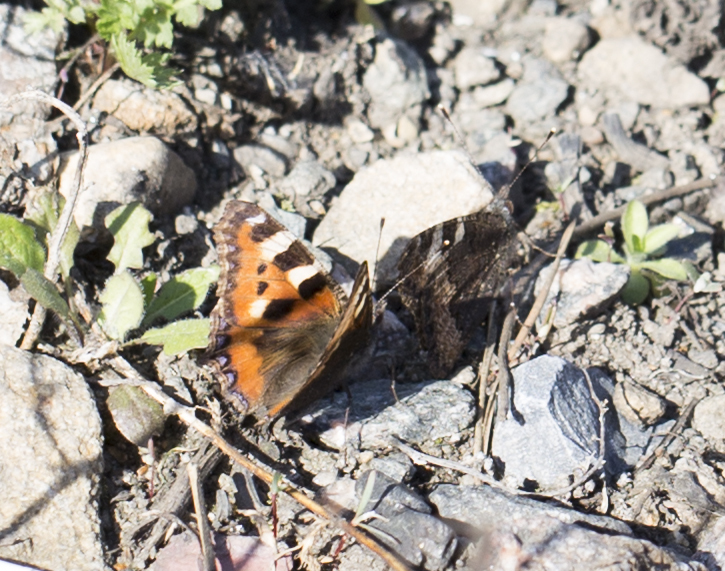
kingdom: Animalia
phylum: Arthropoda
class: Insecta
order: Lepidoptera
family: Nymphalidae
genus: Aglais
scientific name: Aglais urticae
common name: Small tortoiseshell
